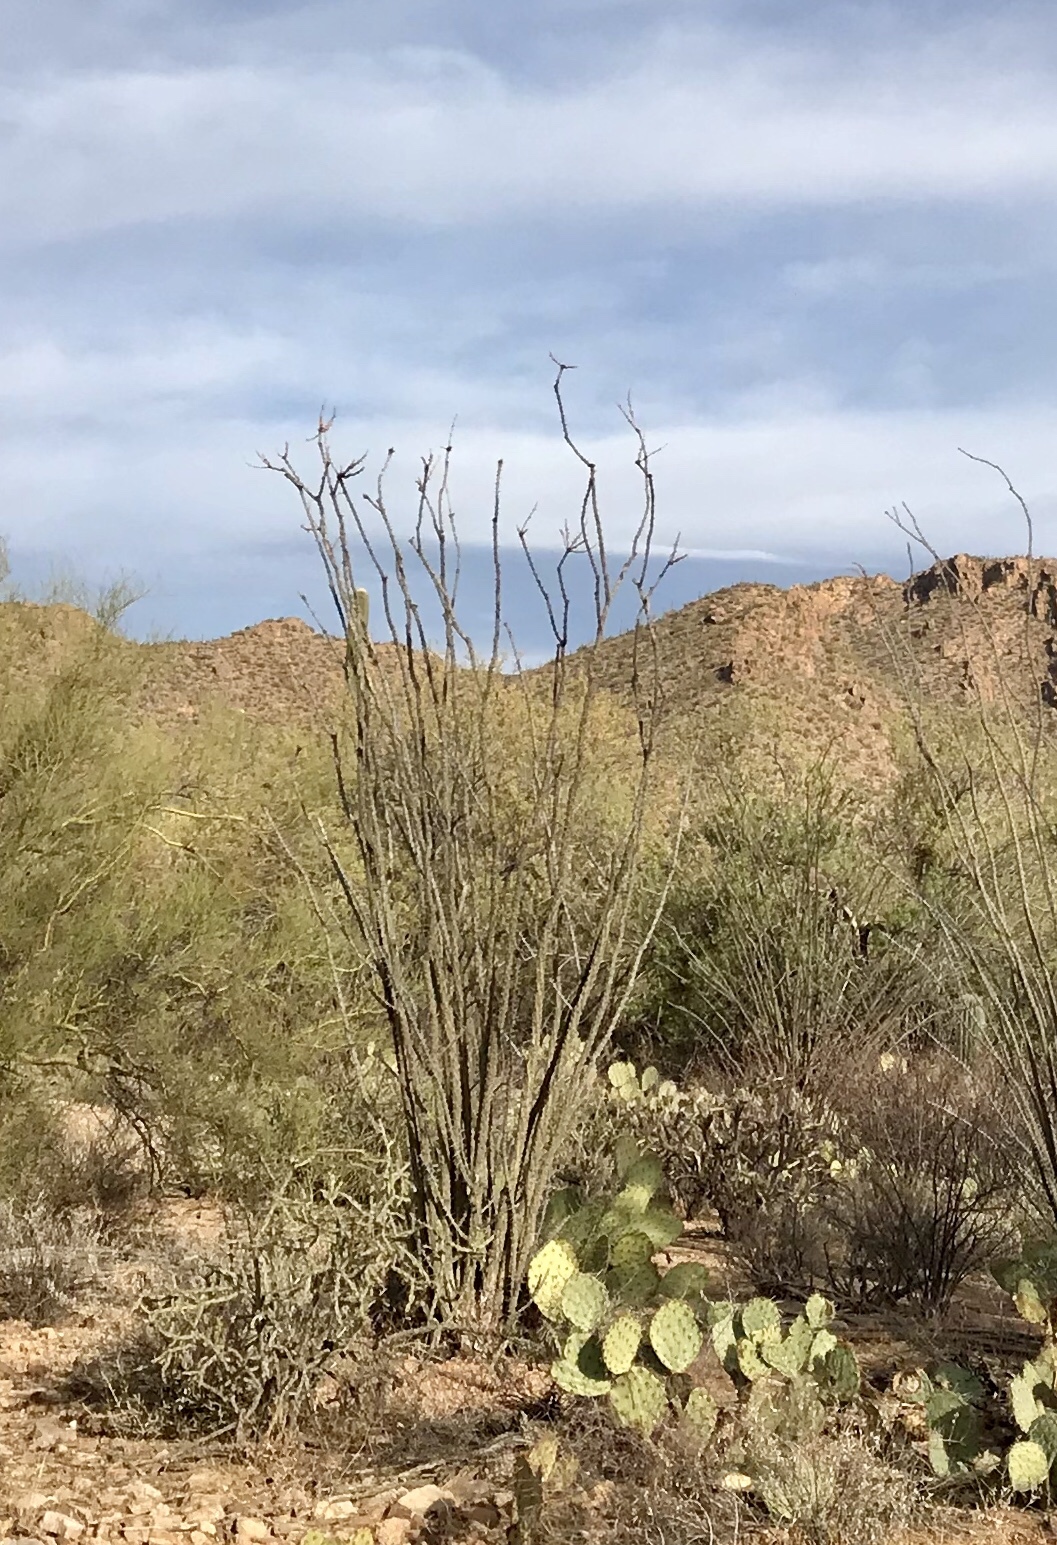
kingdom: Plantae
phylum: Tracheophyta
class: Magnoliopsida
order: Ericales
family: Fouquieriaceae
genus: Fouquieria
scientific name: Fouquieria splendens
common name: Vine-cactus
